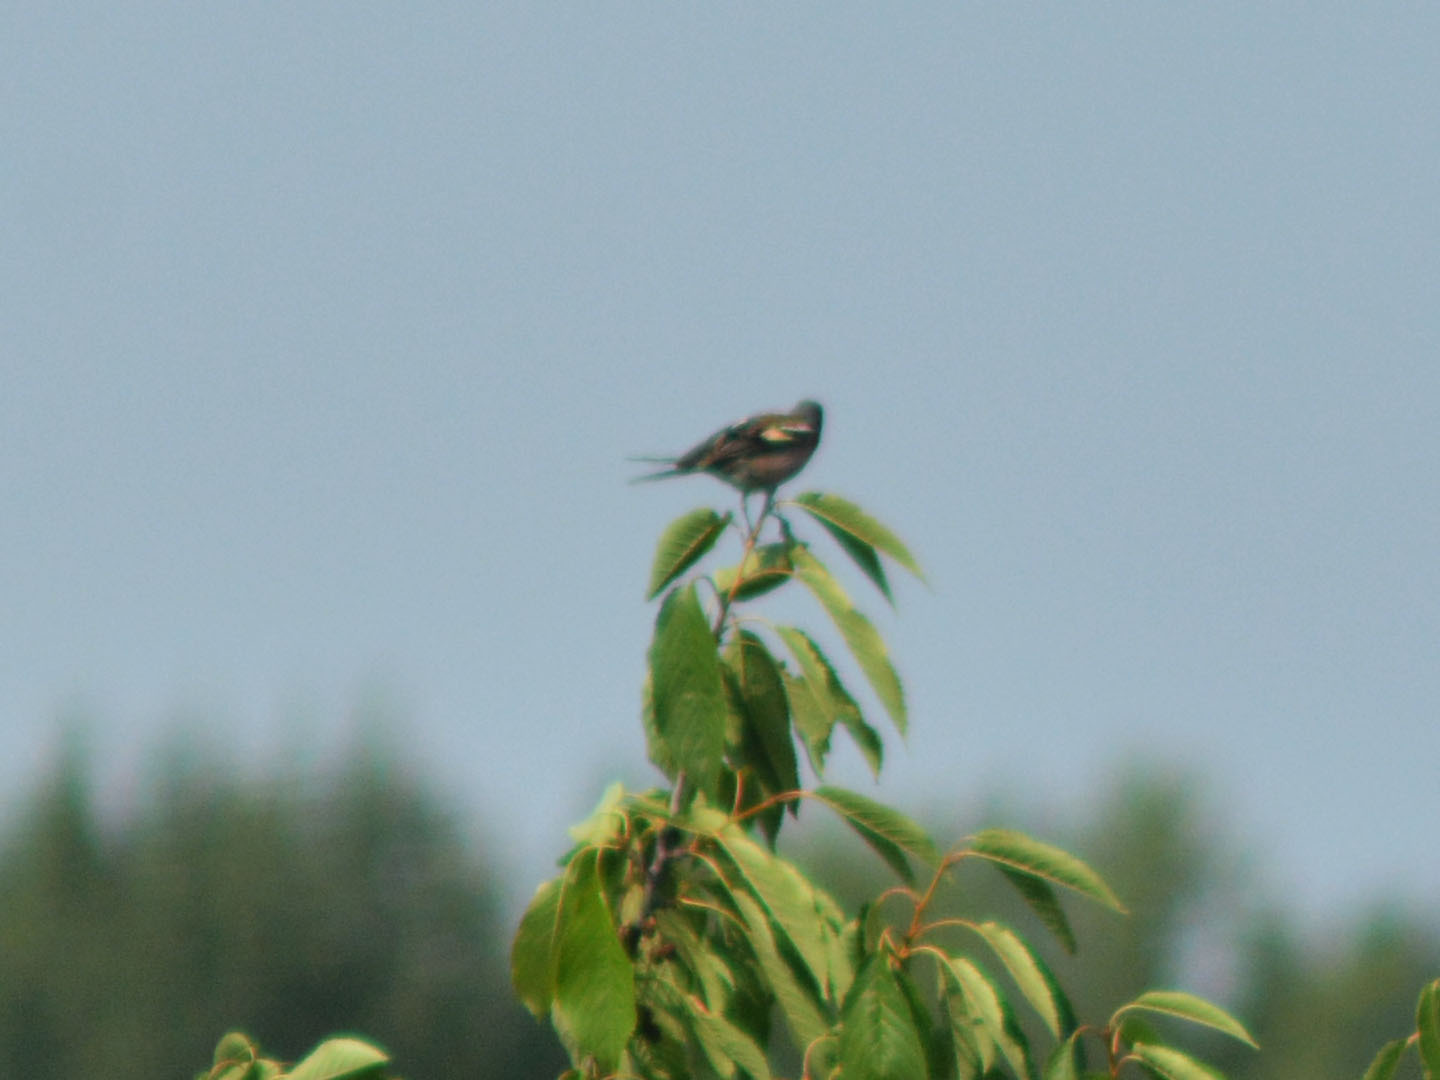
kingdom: Animalia
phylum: Chordata
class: Aves
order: Passeriformes
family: Fringillidae
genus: Fringilla
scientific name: Fringilla coelebs
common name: Common chaffinch
